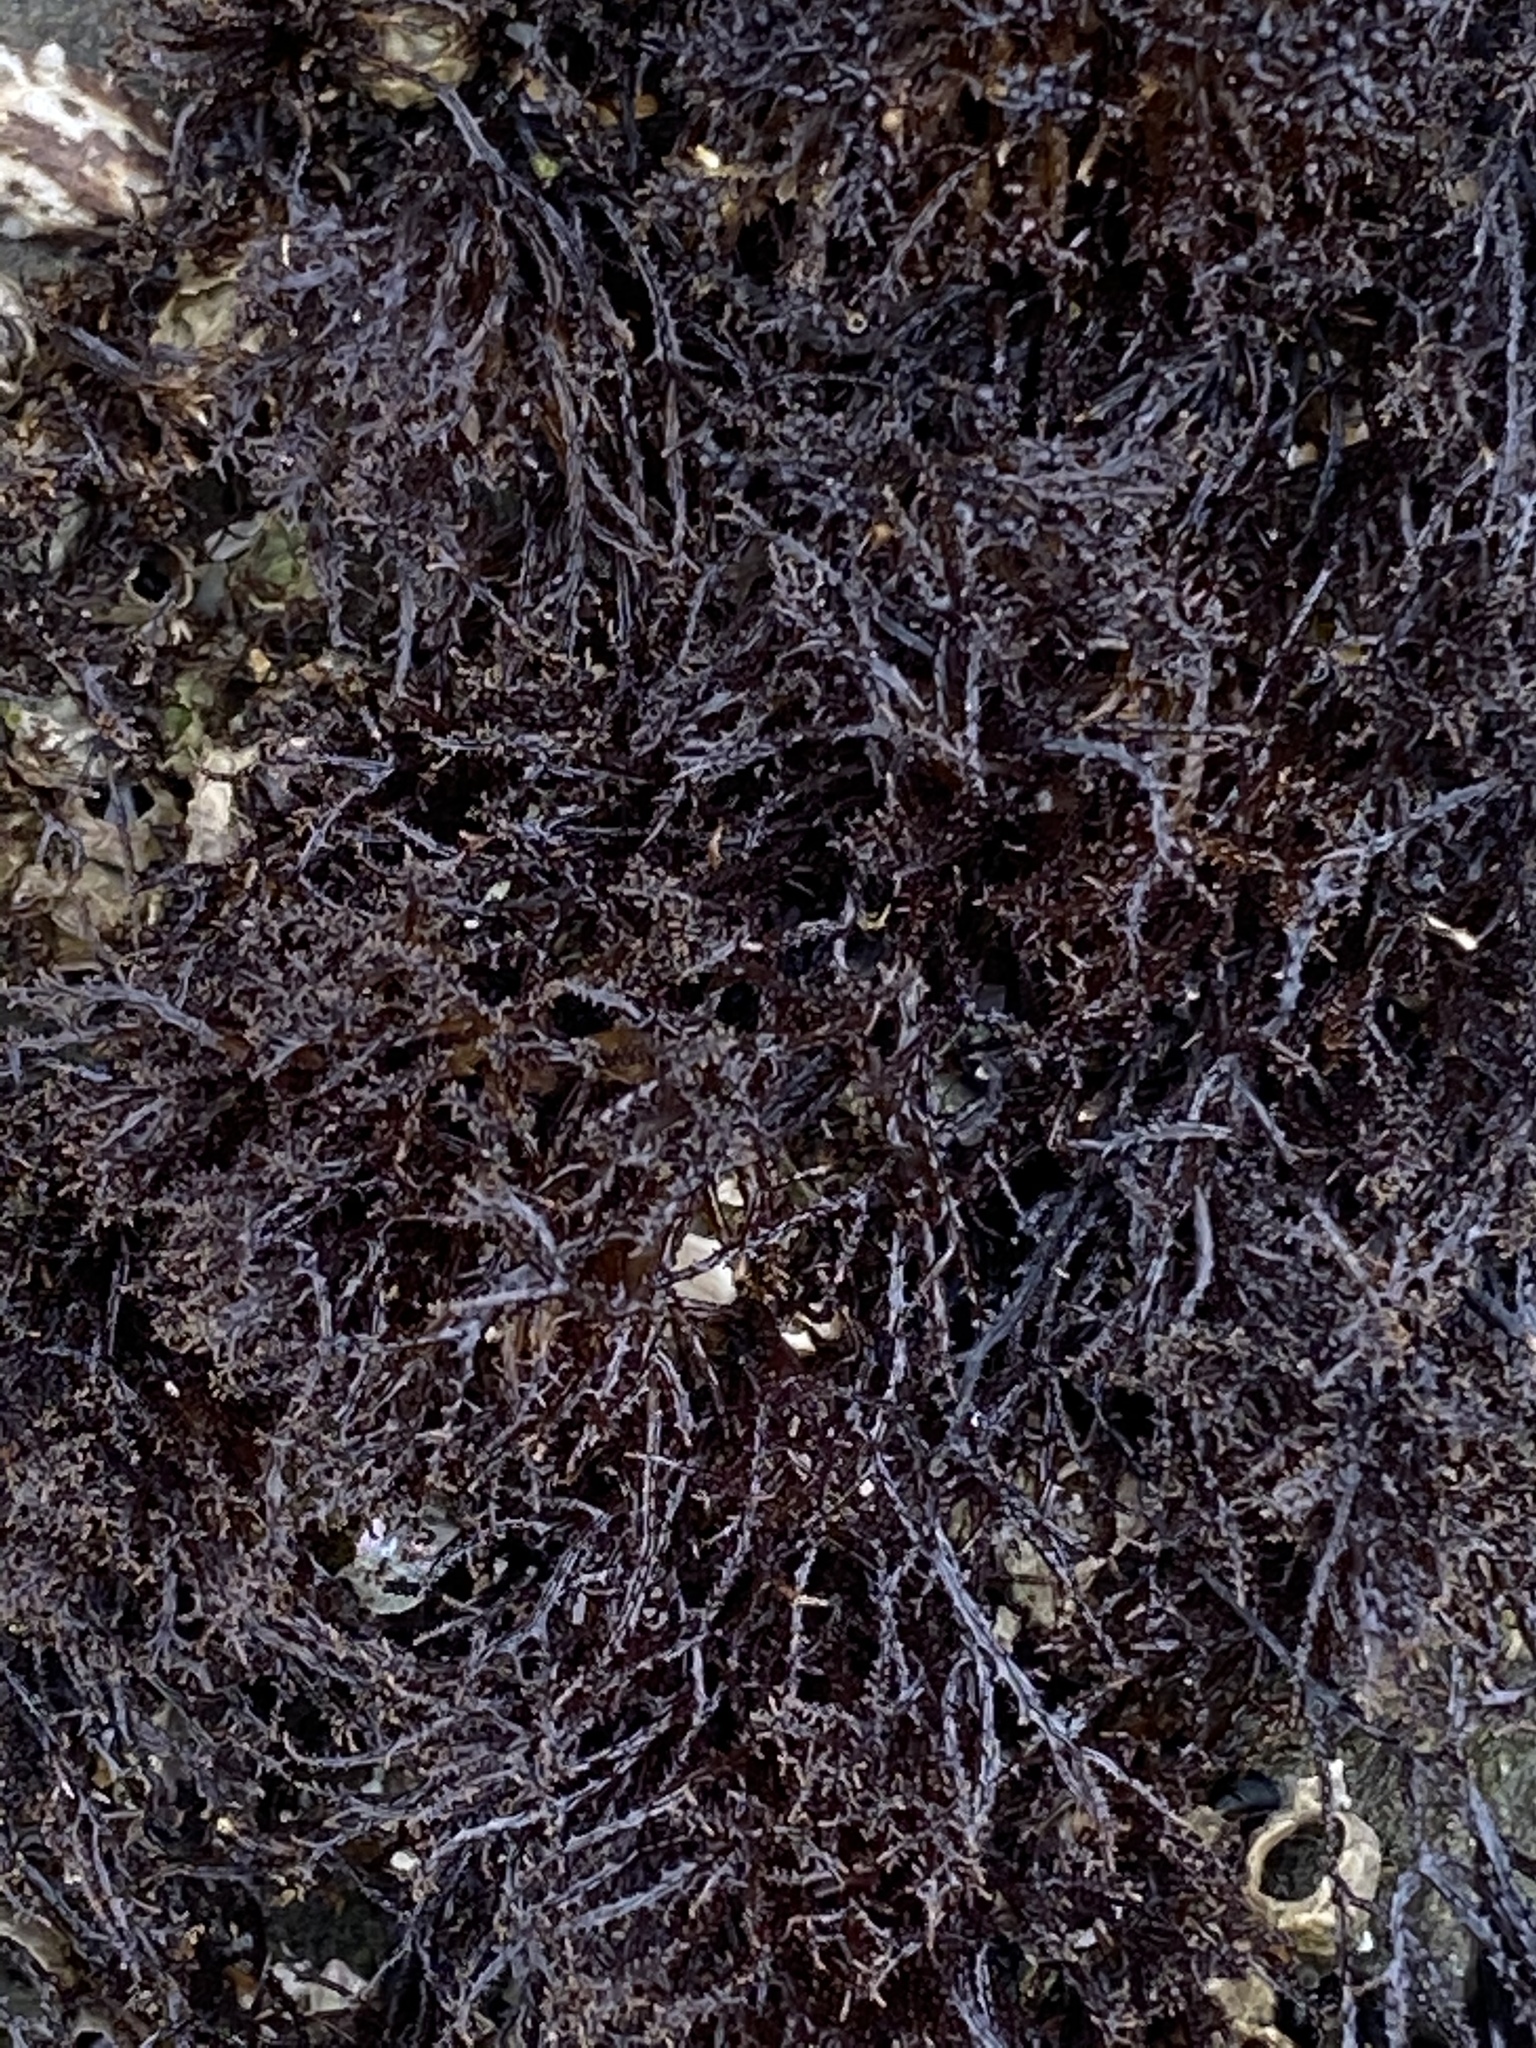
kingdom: Plantae
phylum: Rhodophyta
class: Florideophyceae
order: Gigartinales
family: Endocladiaceae
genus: Endocladia
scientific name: Endocladia muricata
